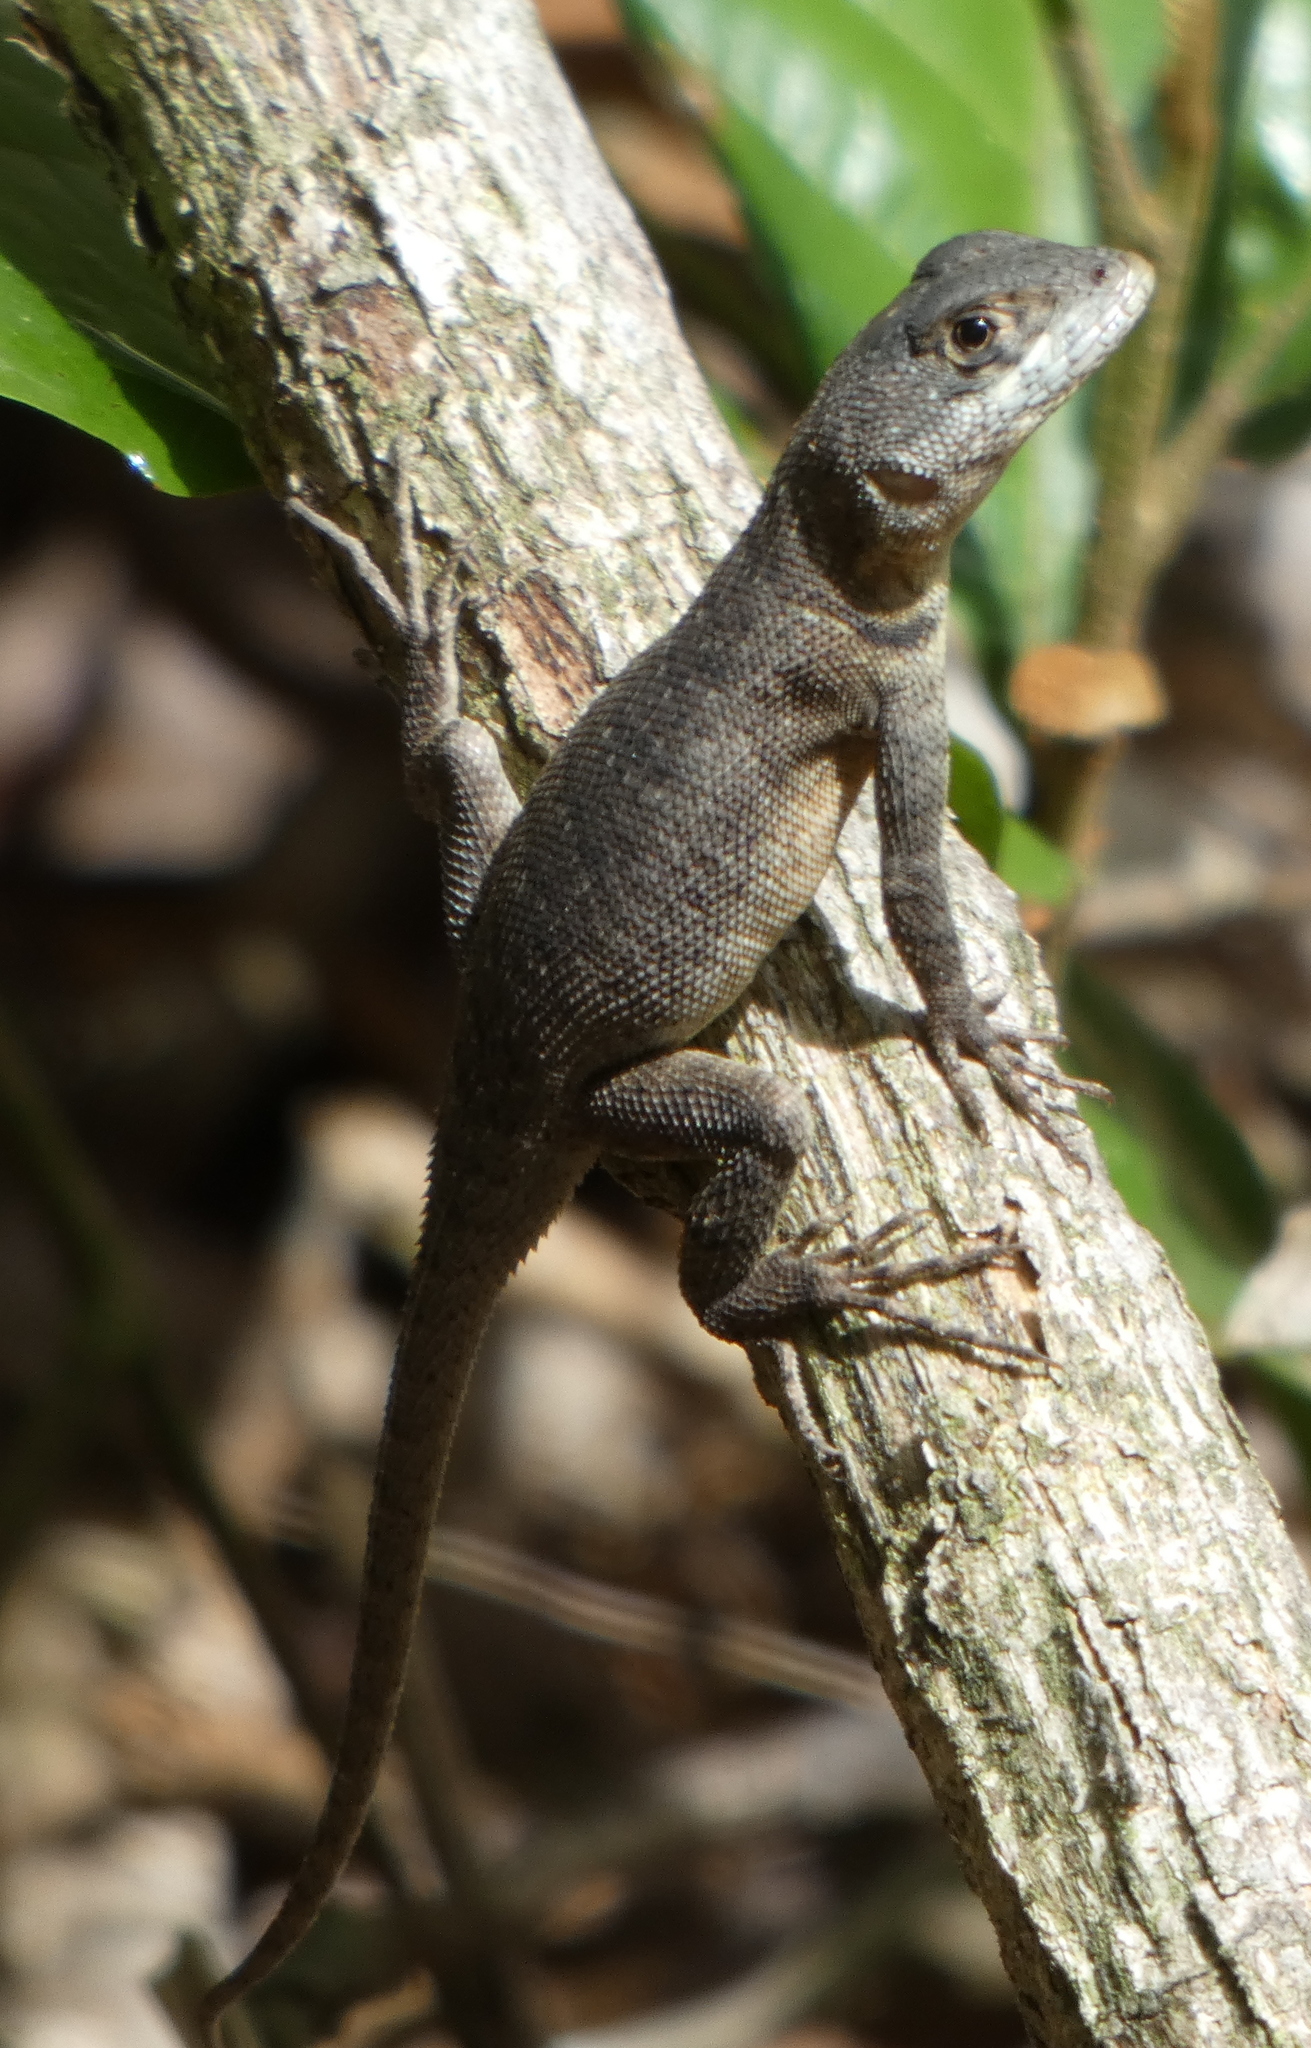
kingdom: Animalia
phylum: Chordata
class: Squamata
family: Tropiduridae
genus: Tropidurus
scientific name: Tropidurus hispidus
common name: Peters' lava lizard
